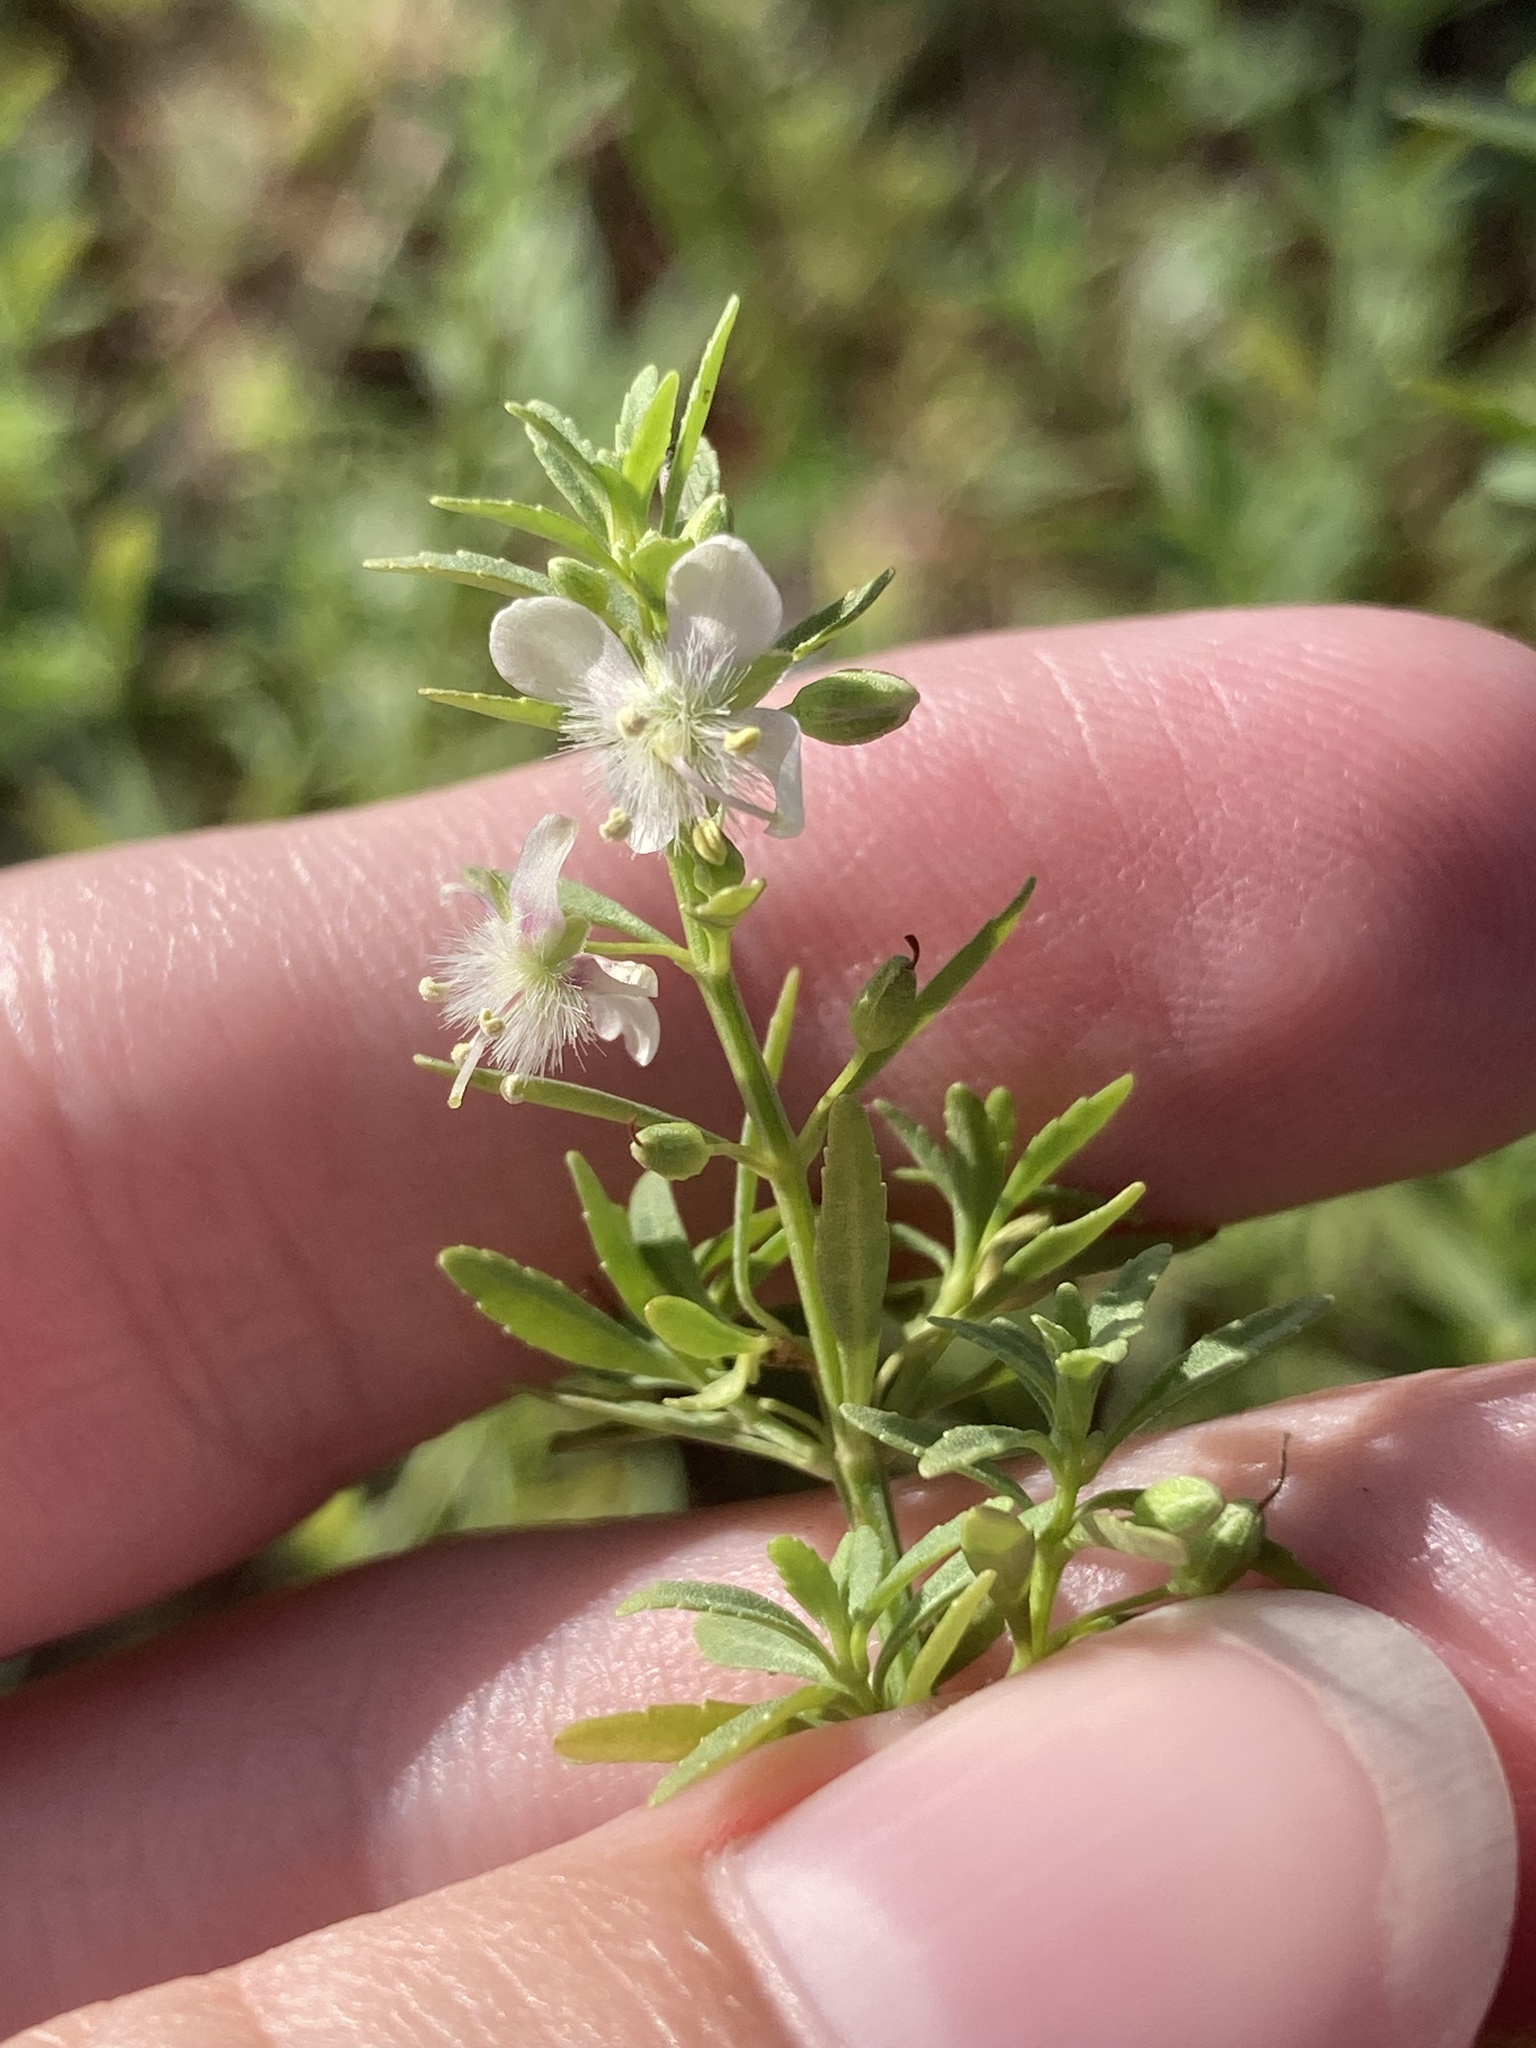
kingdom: Plantae
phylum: Tracheophyta
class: Magnoliopsida
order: Lamiales
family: Plantaginaceae
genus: Scoparia
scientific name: Scoparia dulcis
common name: Scoparia-weed
